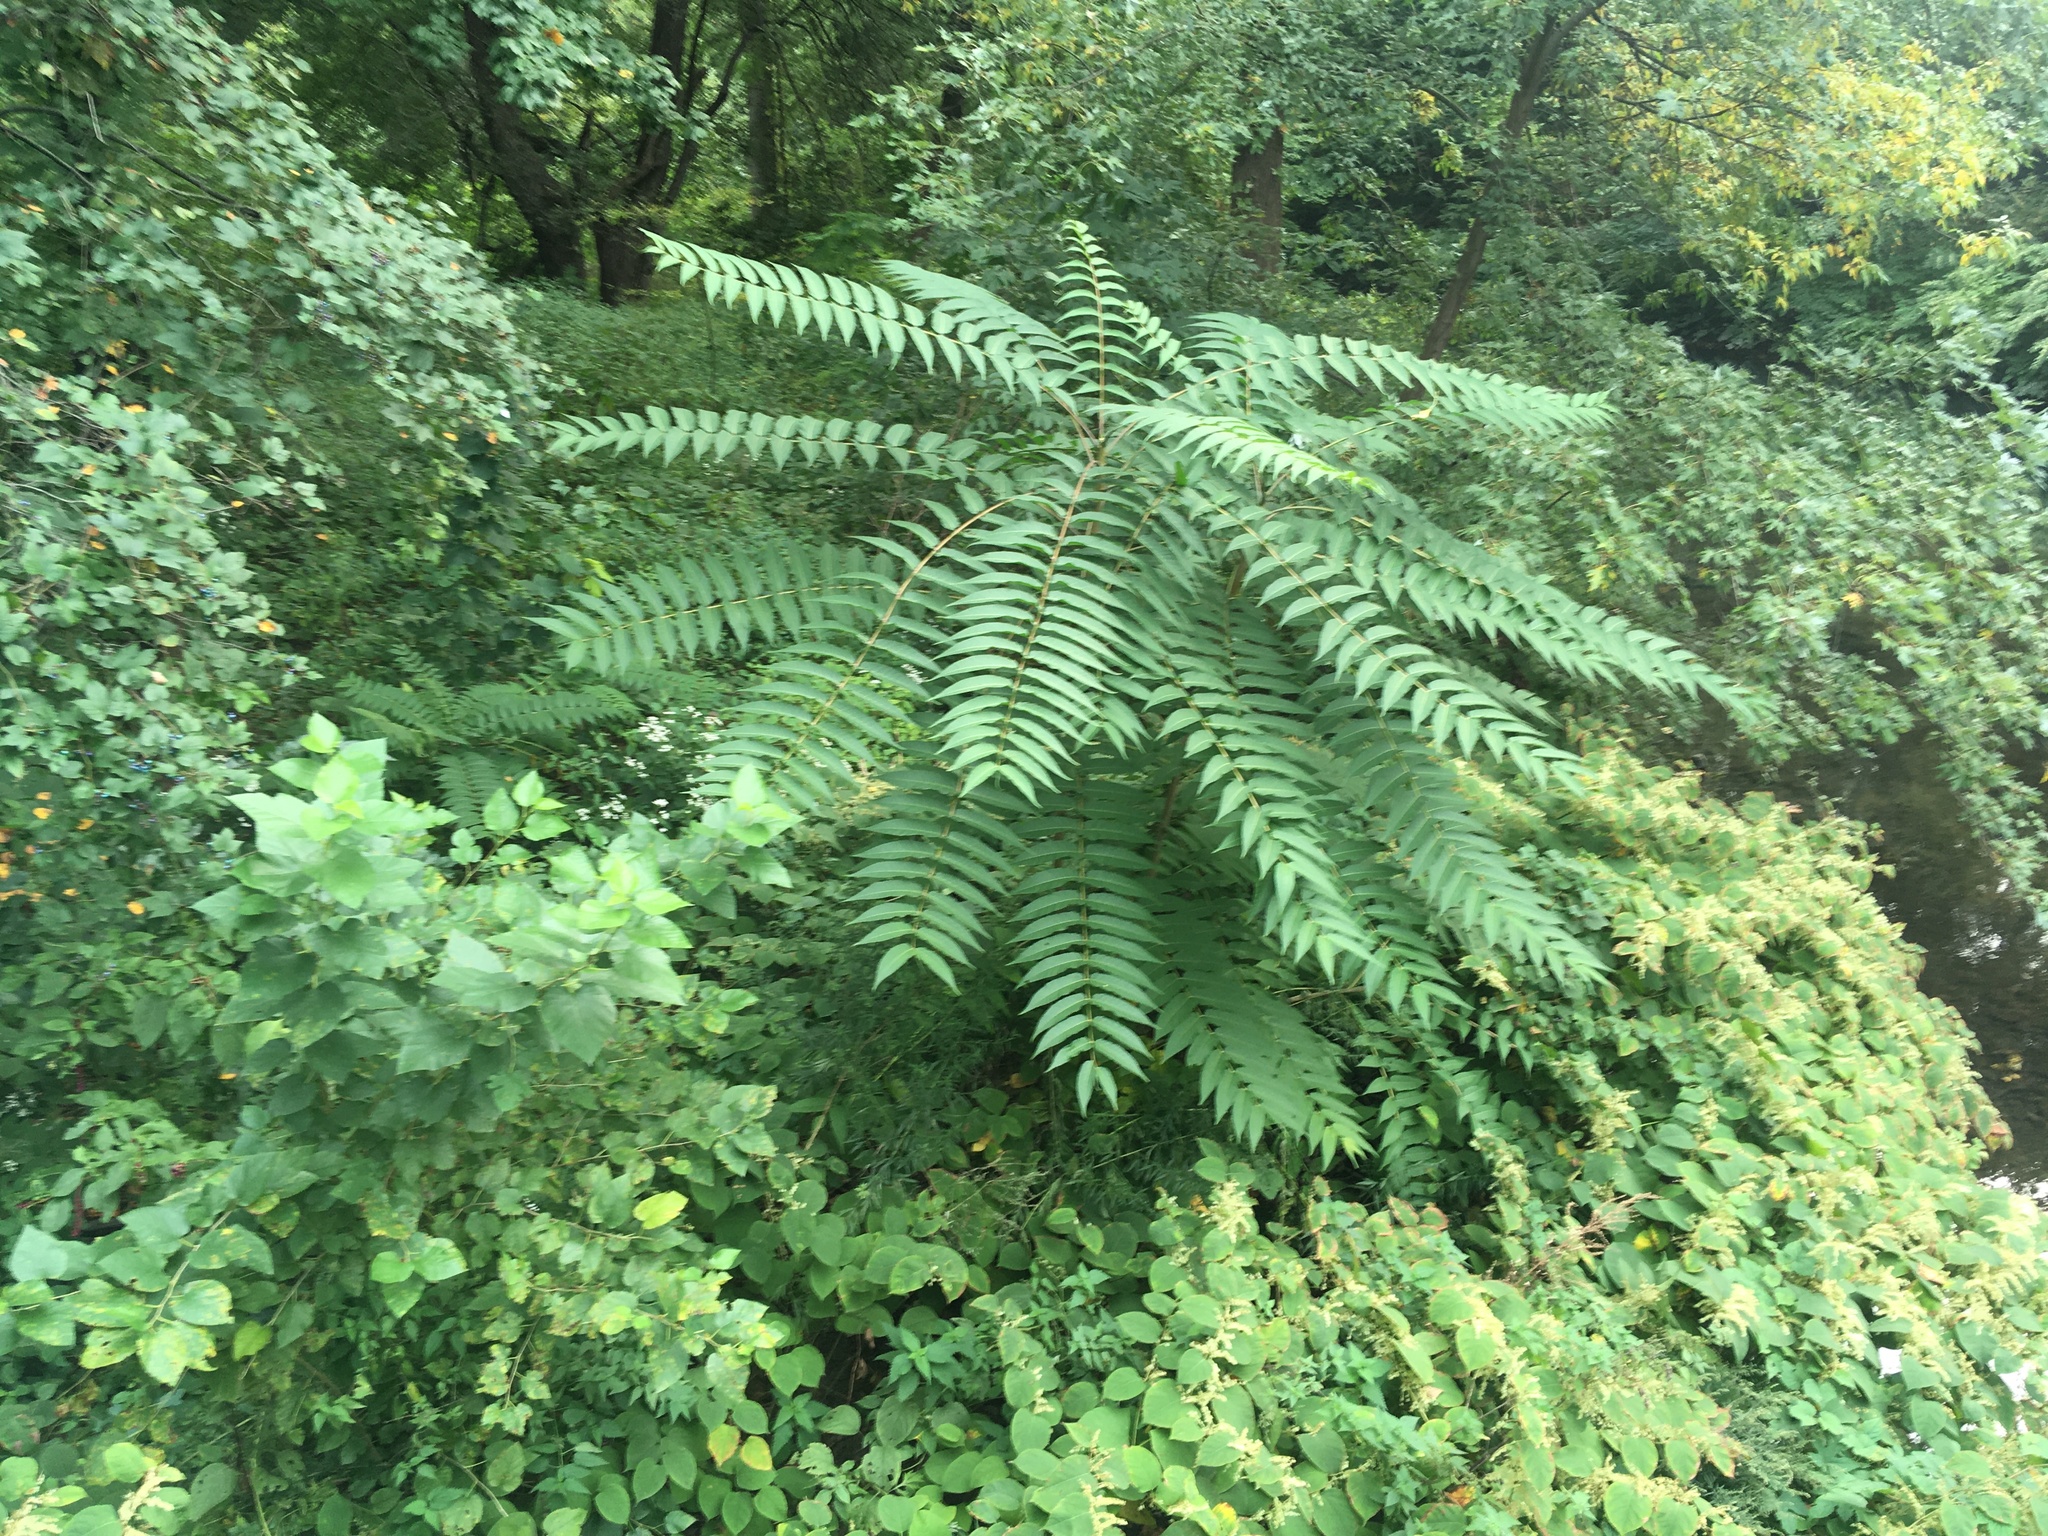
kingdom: Plantae
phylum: Tracheophyta
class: Magnoliopsida
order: Sapindales
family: Simaroubaceae
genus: Ailanthus
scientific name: Ailanthus altissima
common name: Tree-of-heaven
